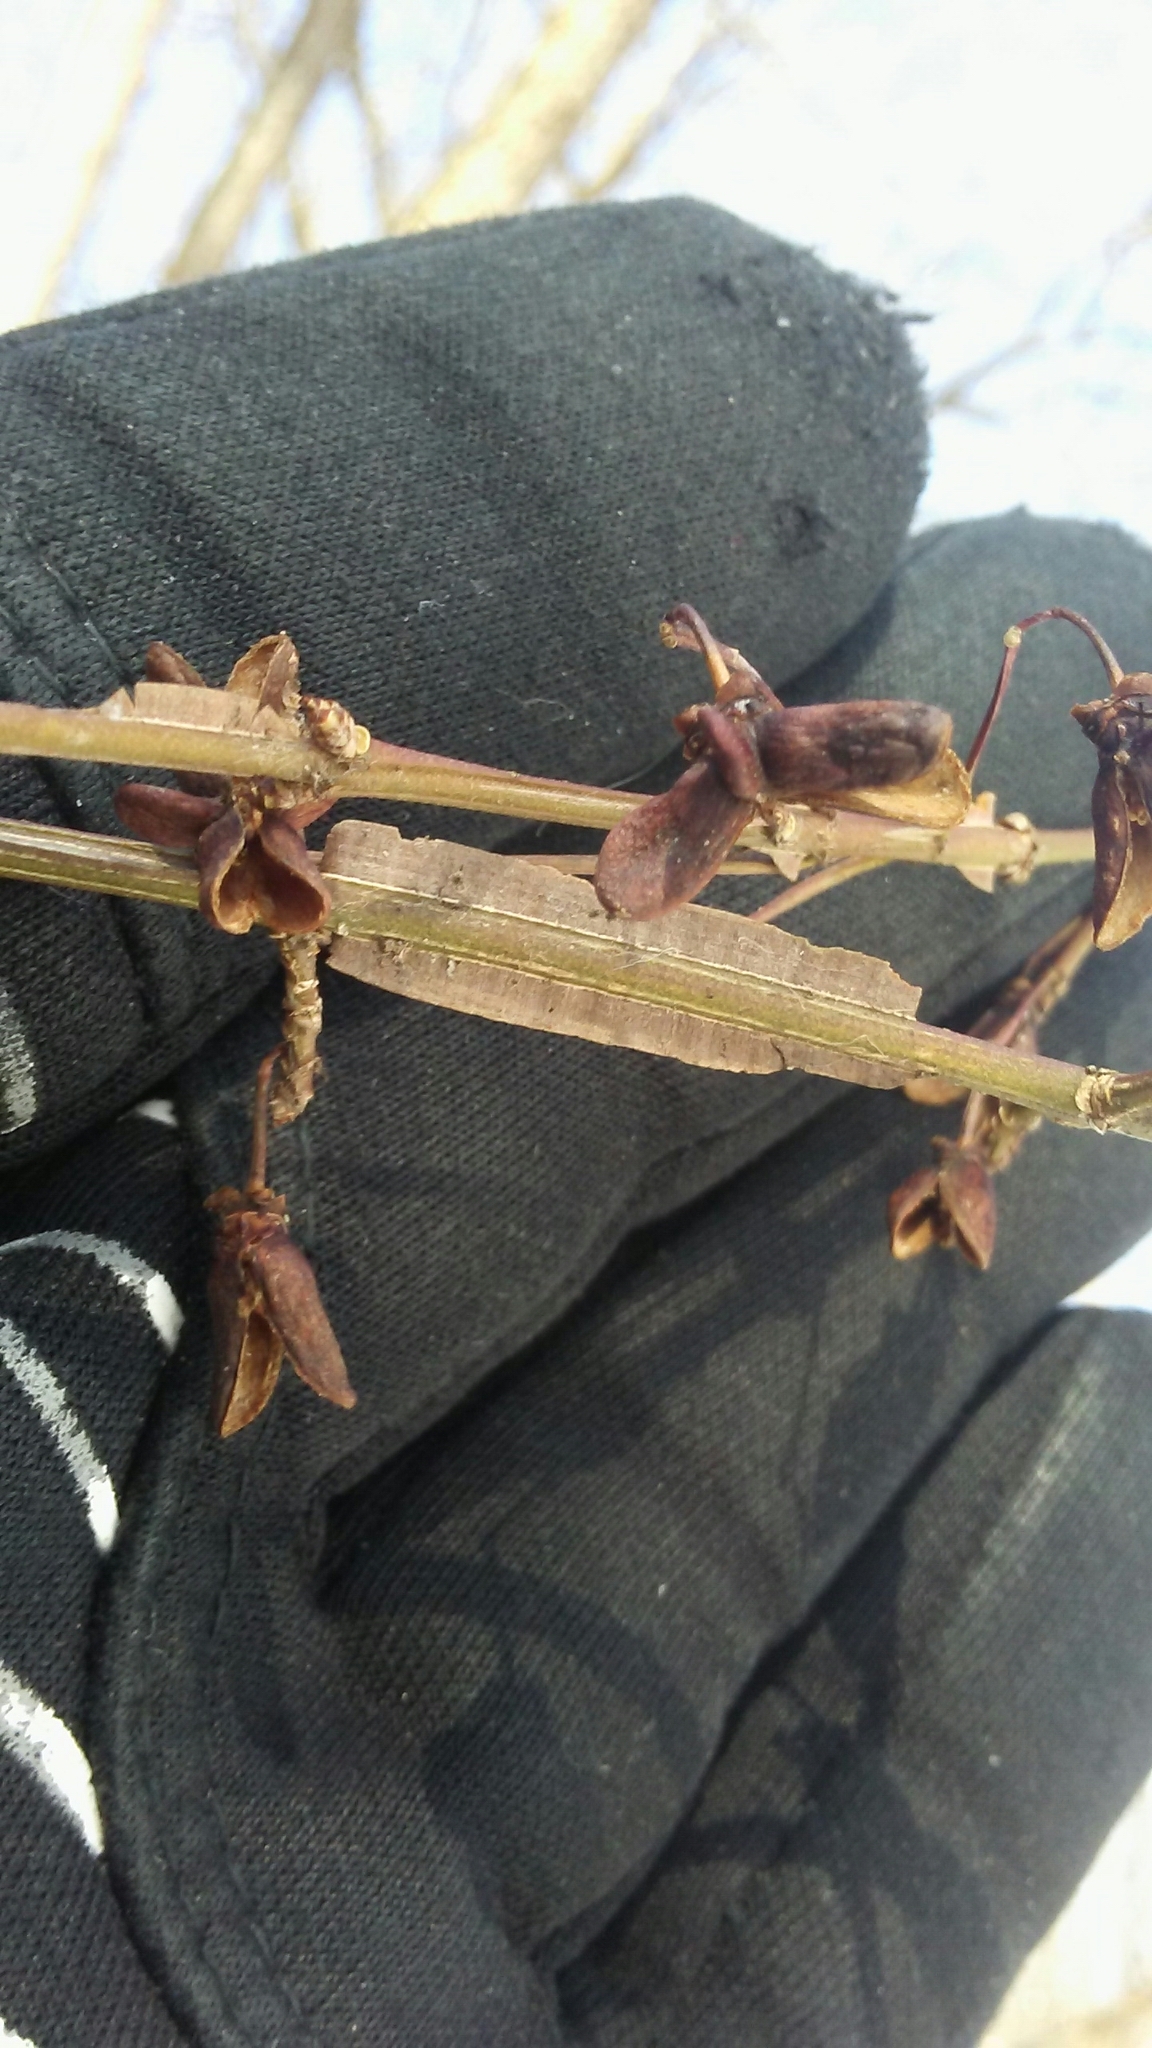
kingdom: Plantae
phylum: Tracheophyta
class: Magnoliopsida
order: Celastrales
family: Celastraceae
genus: Euonymus
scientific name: Euonymus alatus
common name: Winged euonymus
